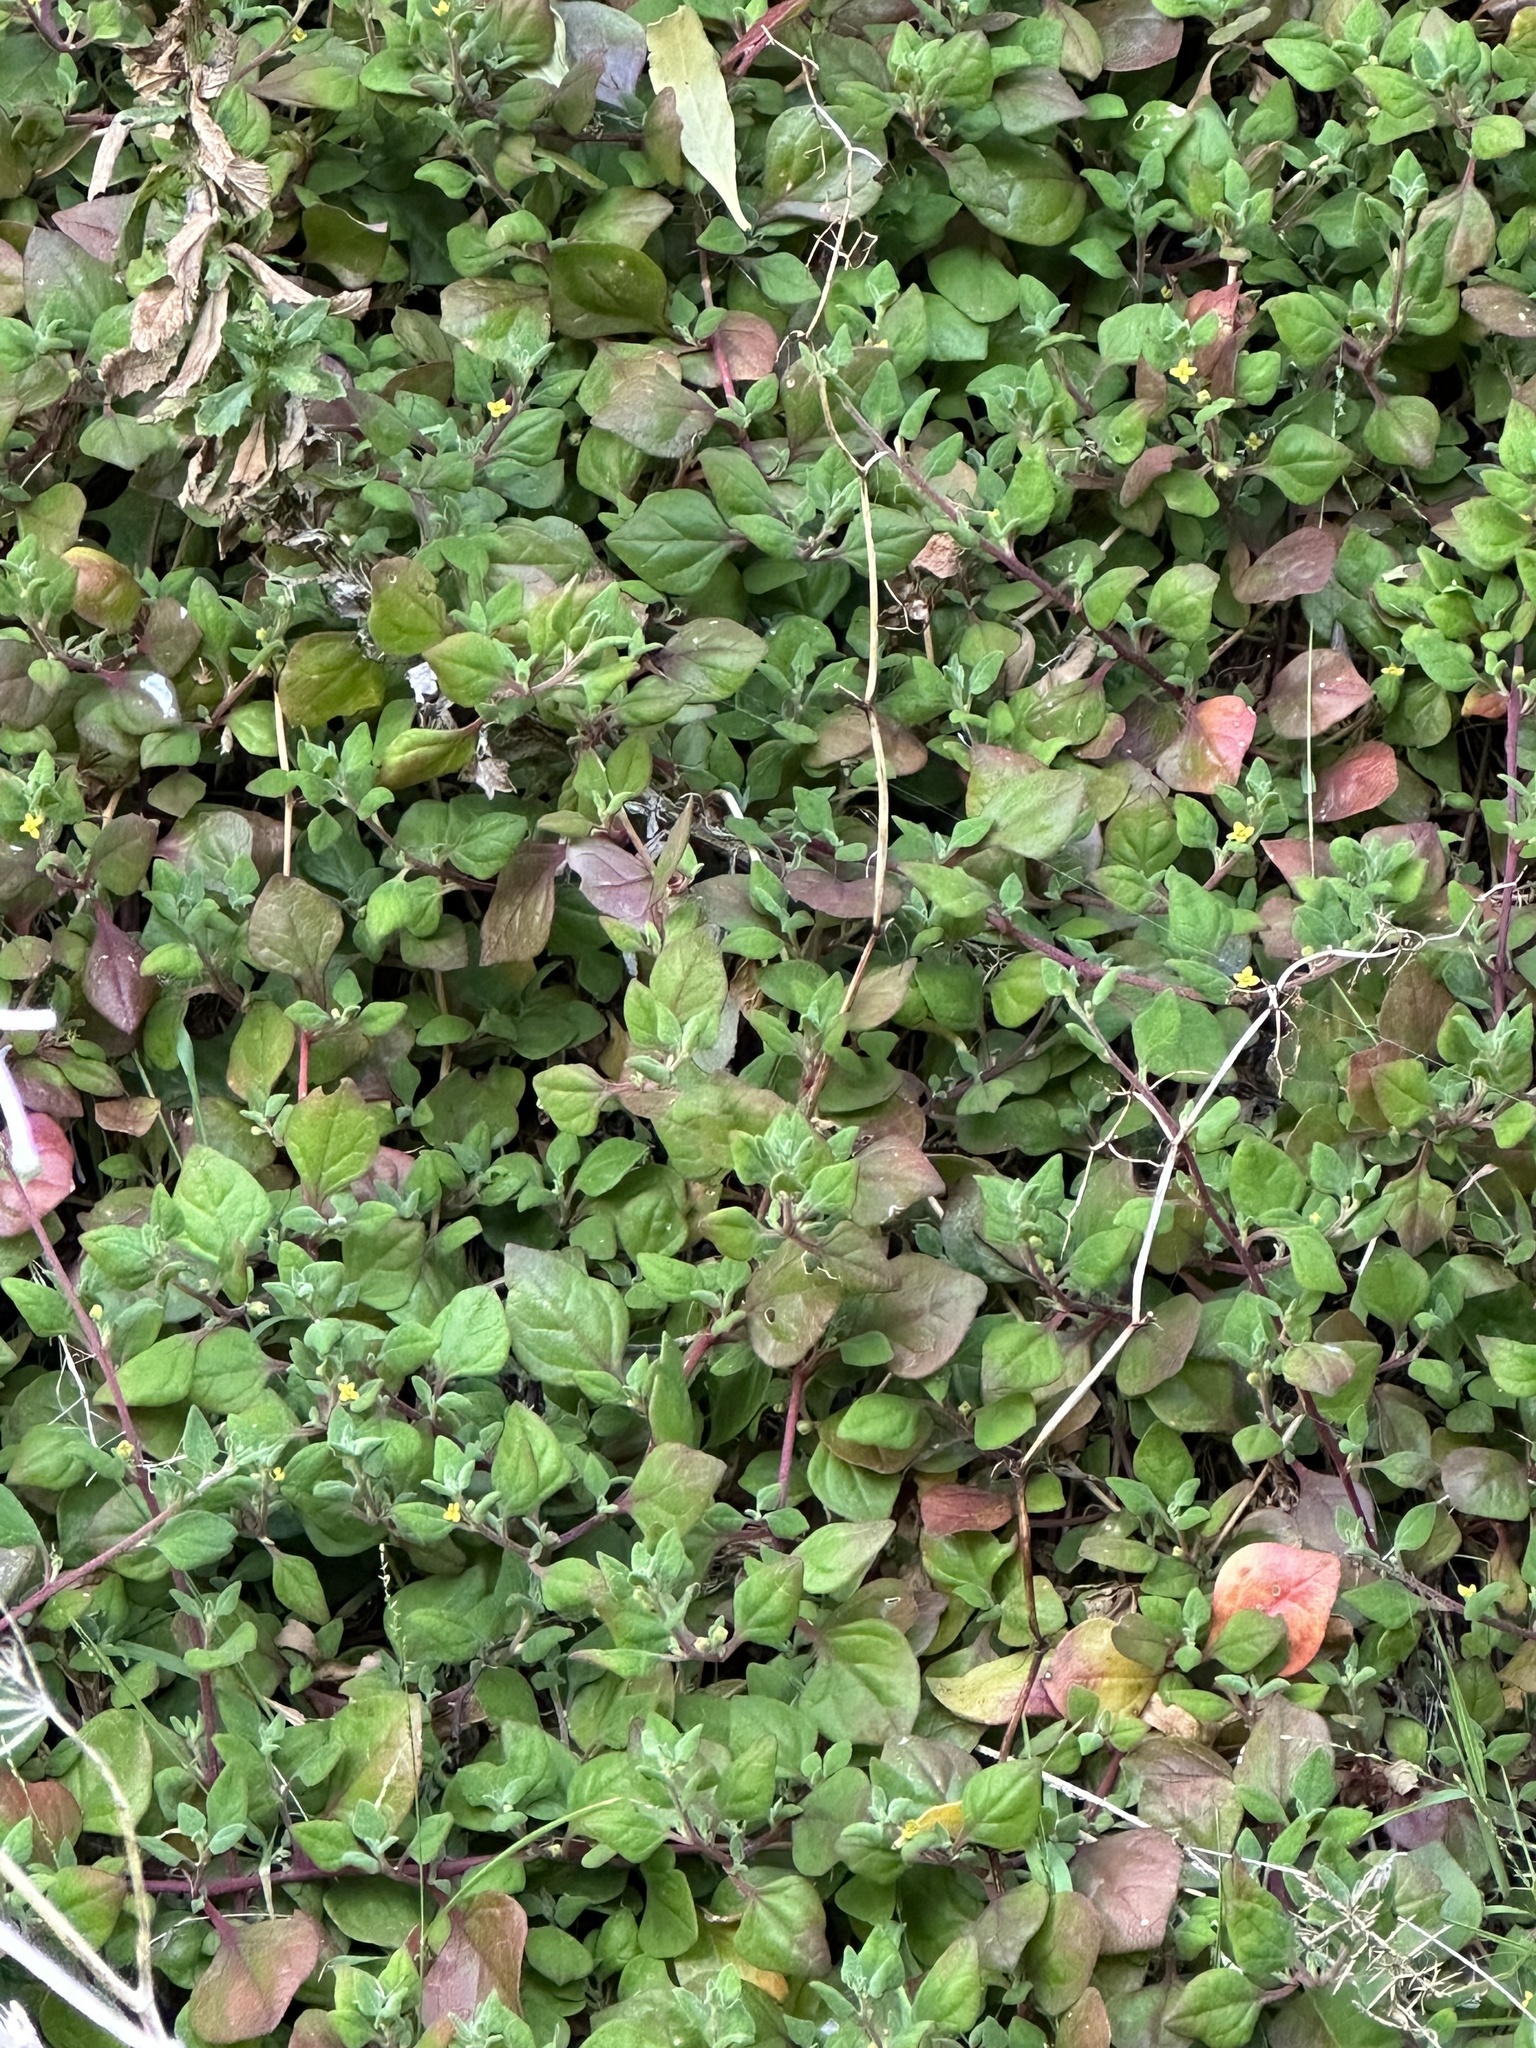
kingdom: Plantae
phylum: Tracheophyta
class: Magnoliopsida
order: Caryophyllales
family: Aizoaceae
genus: Tetragonia
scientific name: Tetragonia implexicoma
